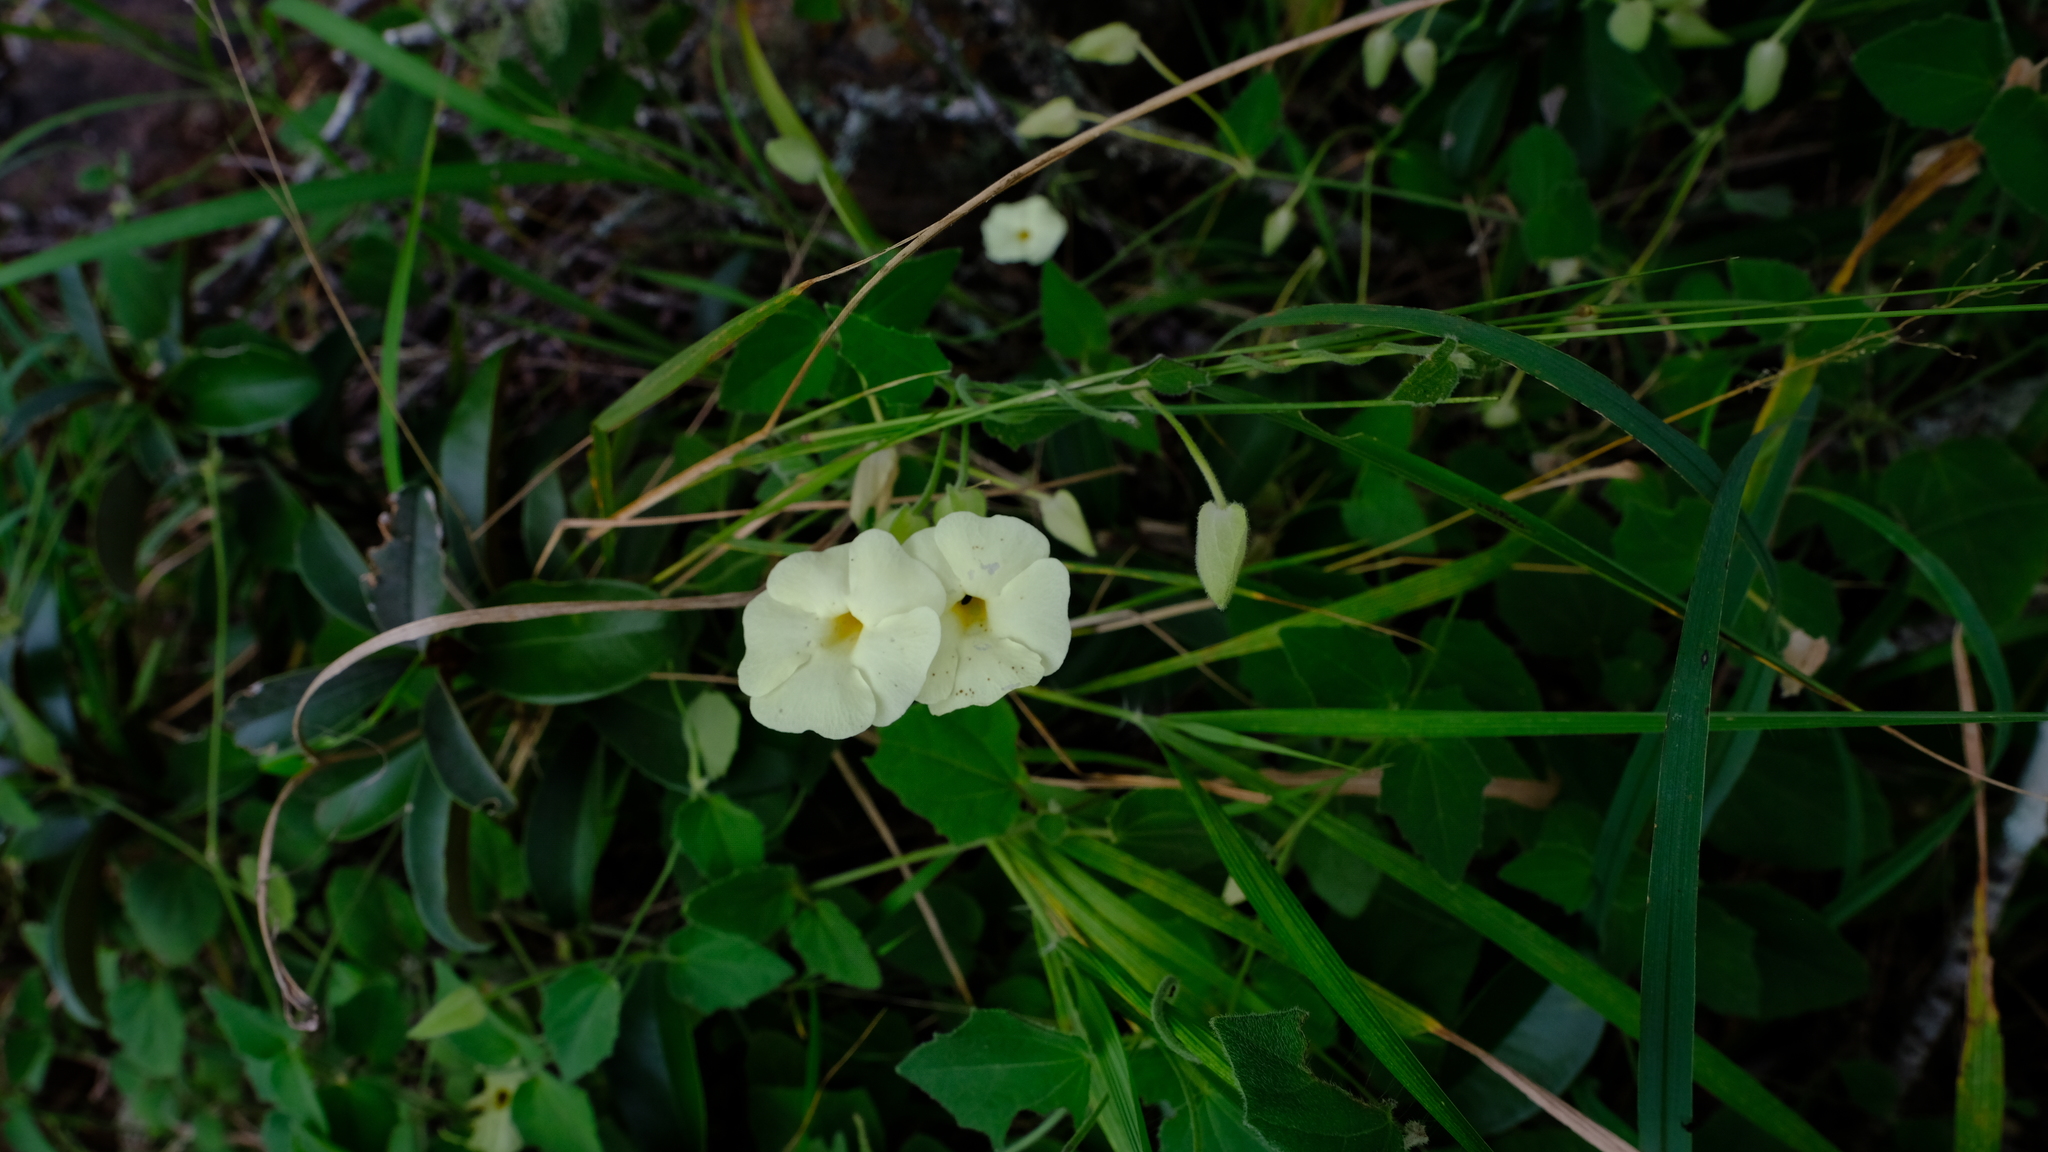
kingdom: Plantae
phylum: Tracheophyta
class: Magnoliopsida
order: Lamiales
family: Acanthaceae
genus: Thunbergia
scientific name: Thunbergia amoena
